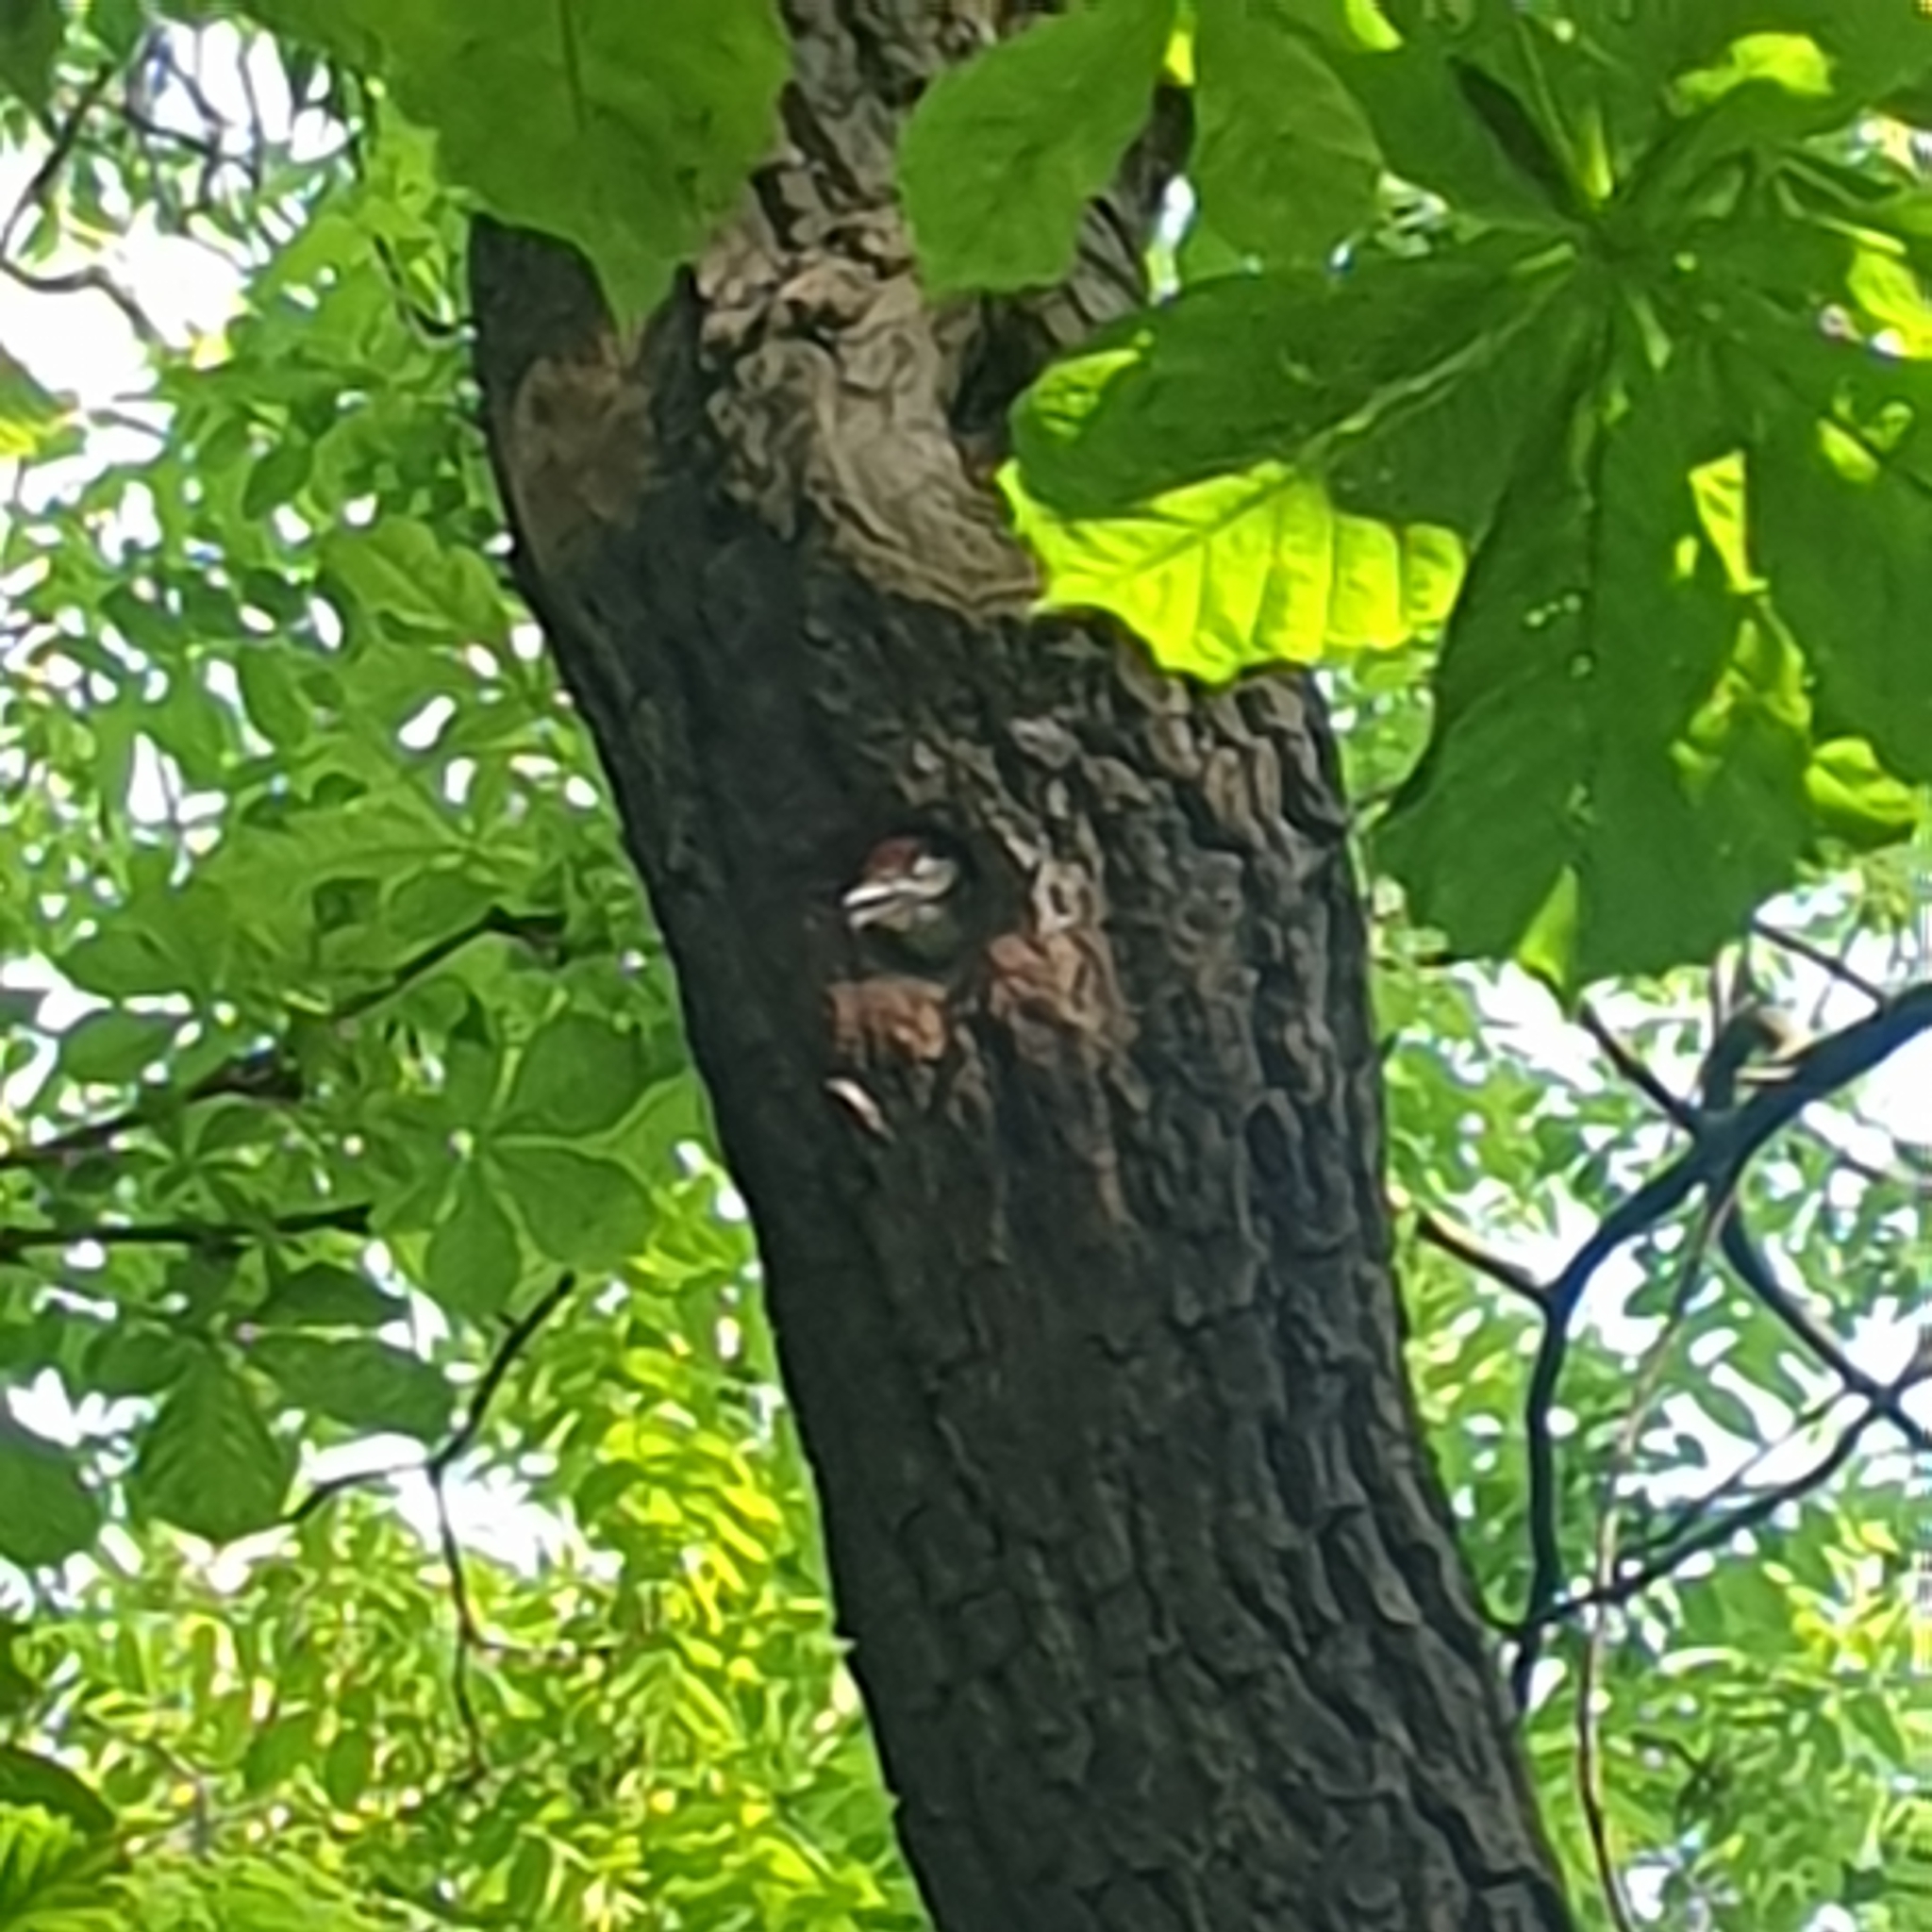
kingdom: Animalia
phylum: Chordata
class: Aves
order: Piciformes
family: Picidae
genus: Dendrocopos
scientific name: Dendrocopos major
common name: Great spotted woodpecker
